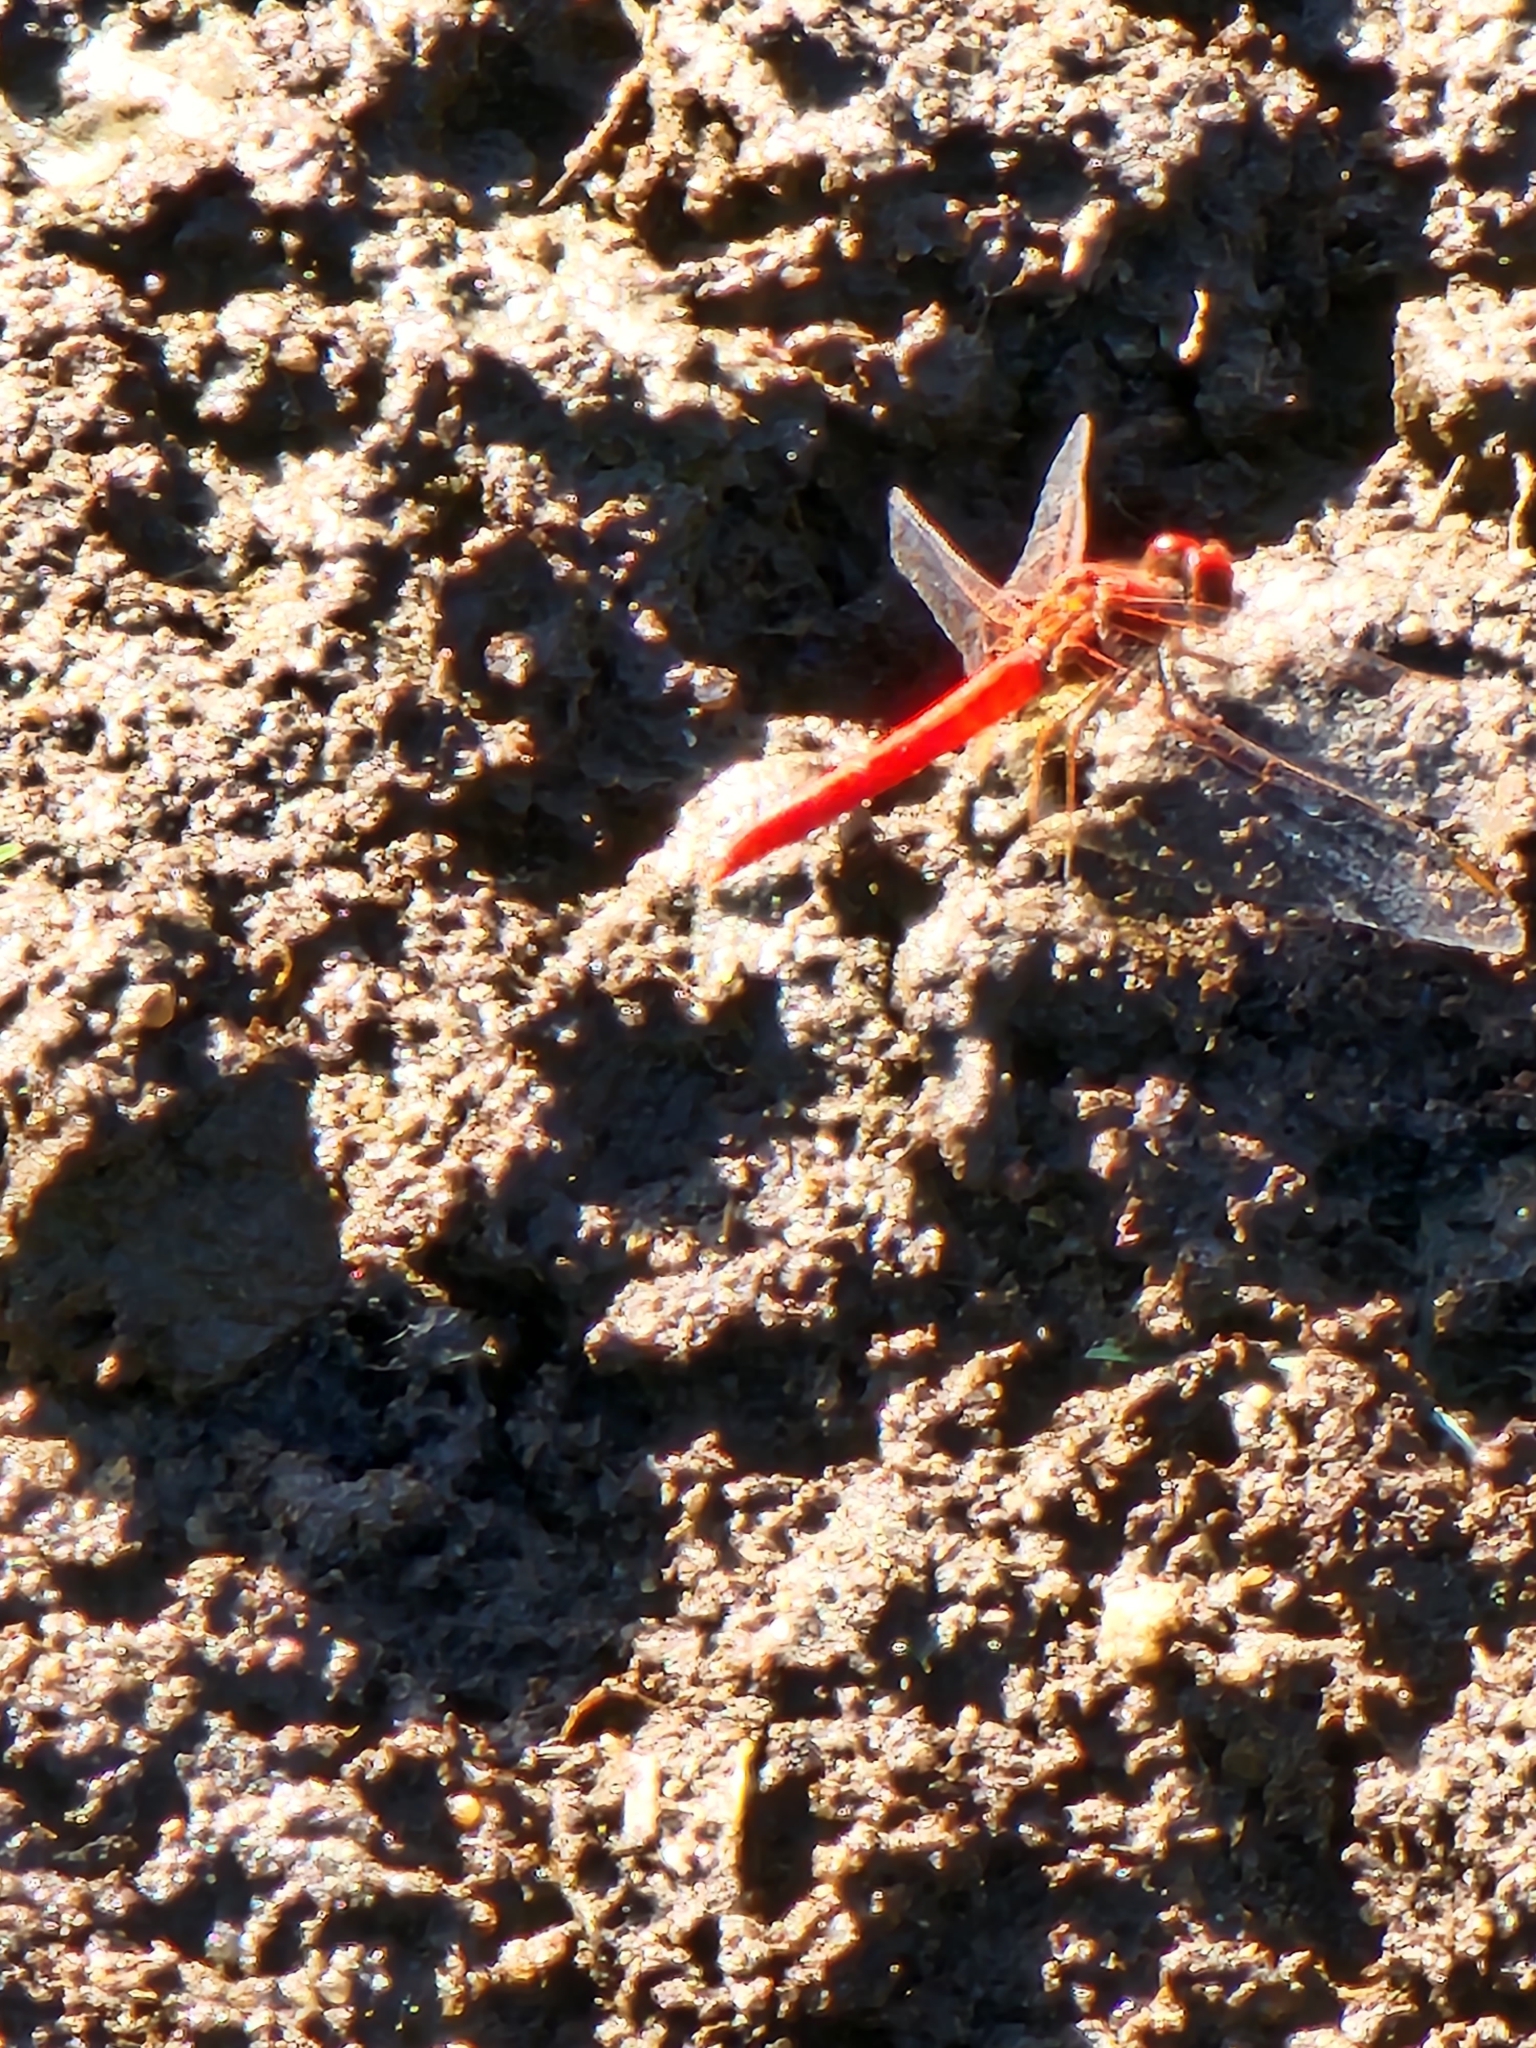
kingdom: Animalia
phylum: Arthropoda
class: Insecta
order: Odonata
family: Libellulidae
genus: Diplacodes
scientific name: Diplacodes haematodes
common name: Scarlet percher
